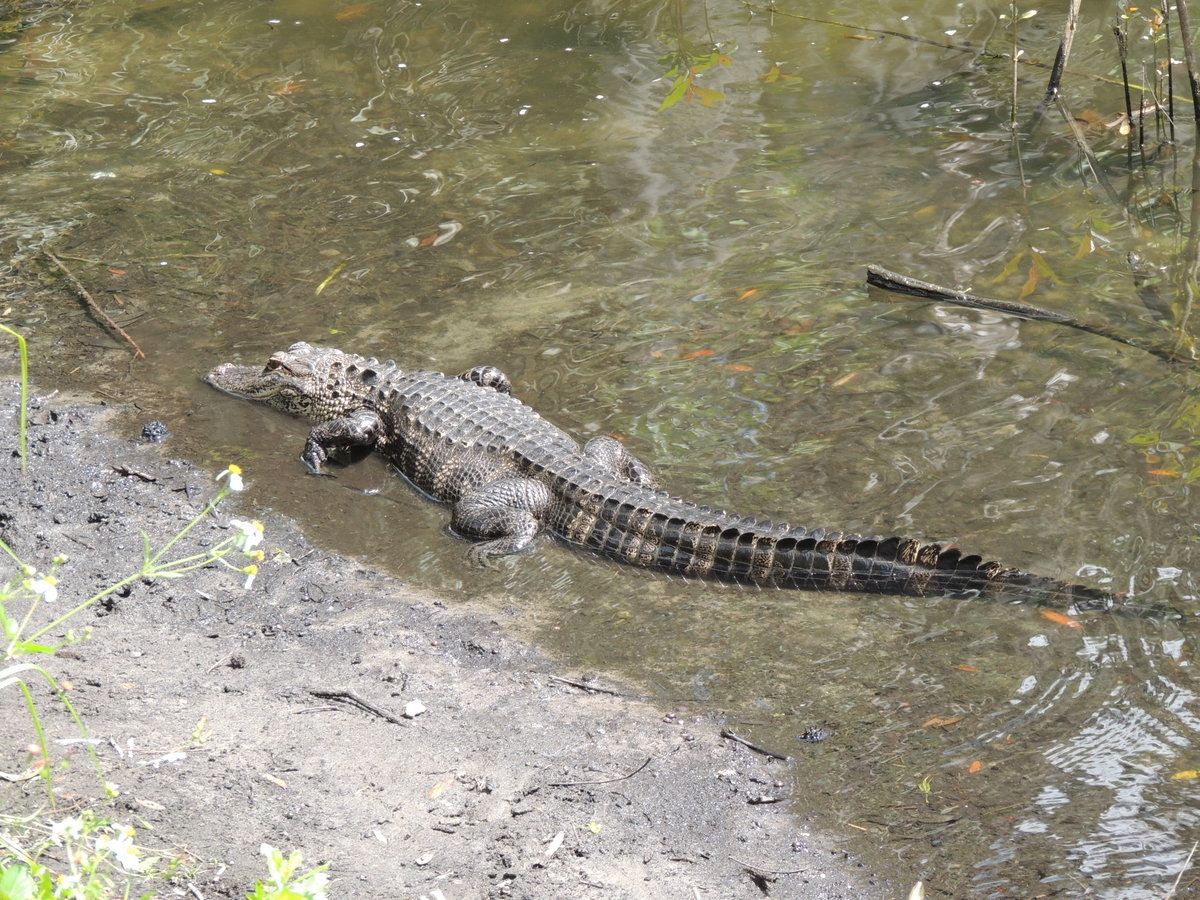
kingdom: Animalia
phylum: Chordata
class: Crocodylia
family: Alligatoridae
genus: Alligator
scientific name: Alligator mississippiensis
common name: American alligator
